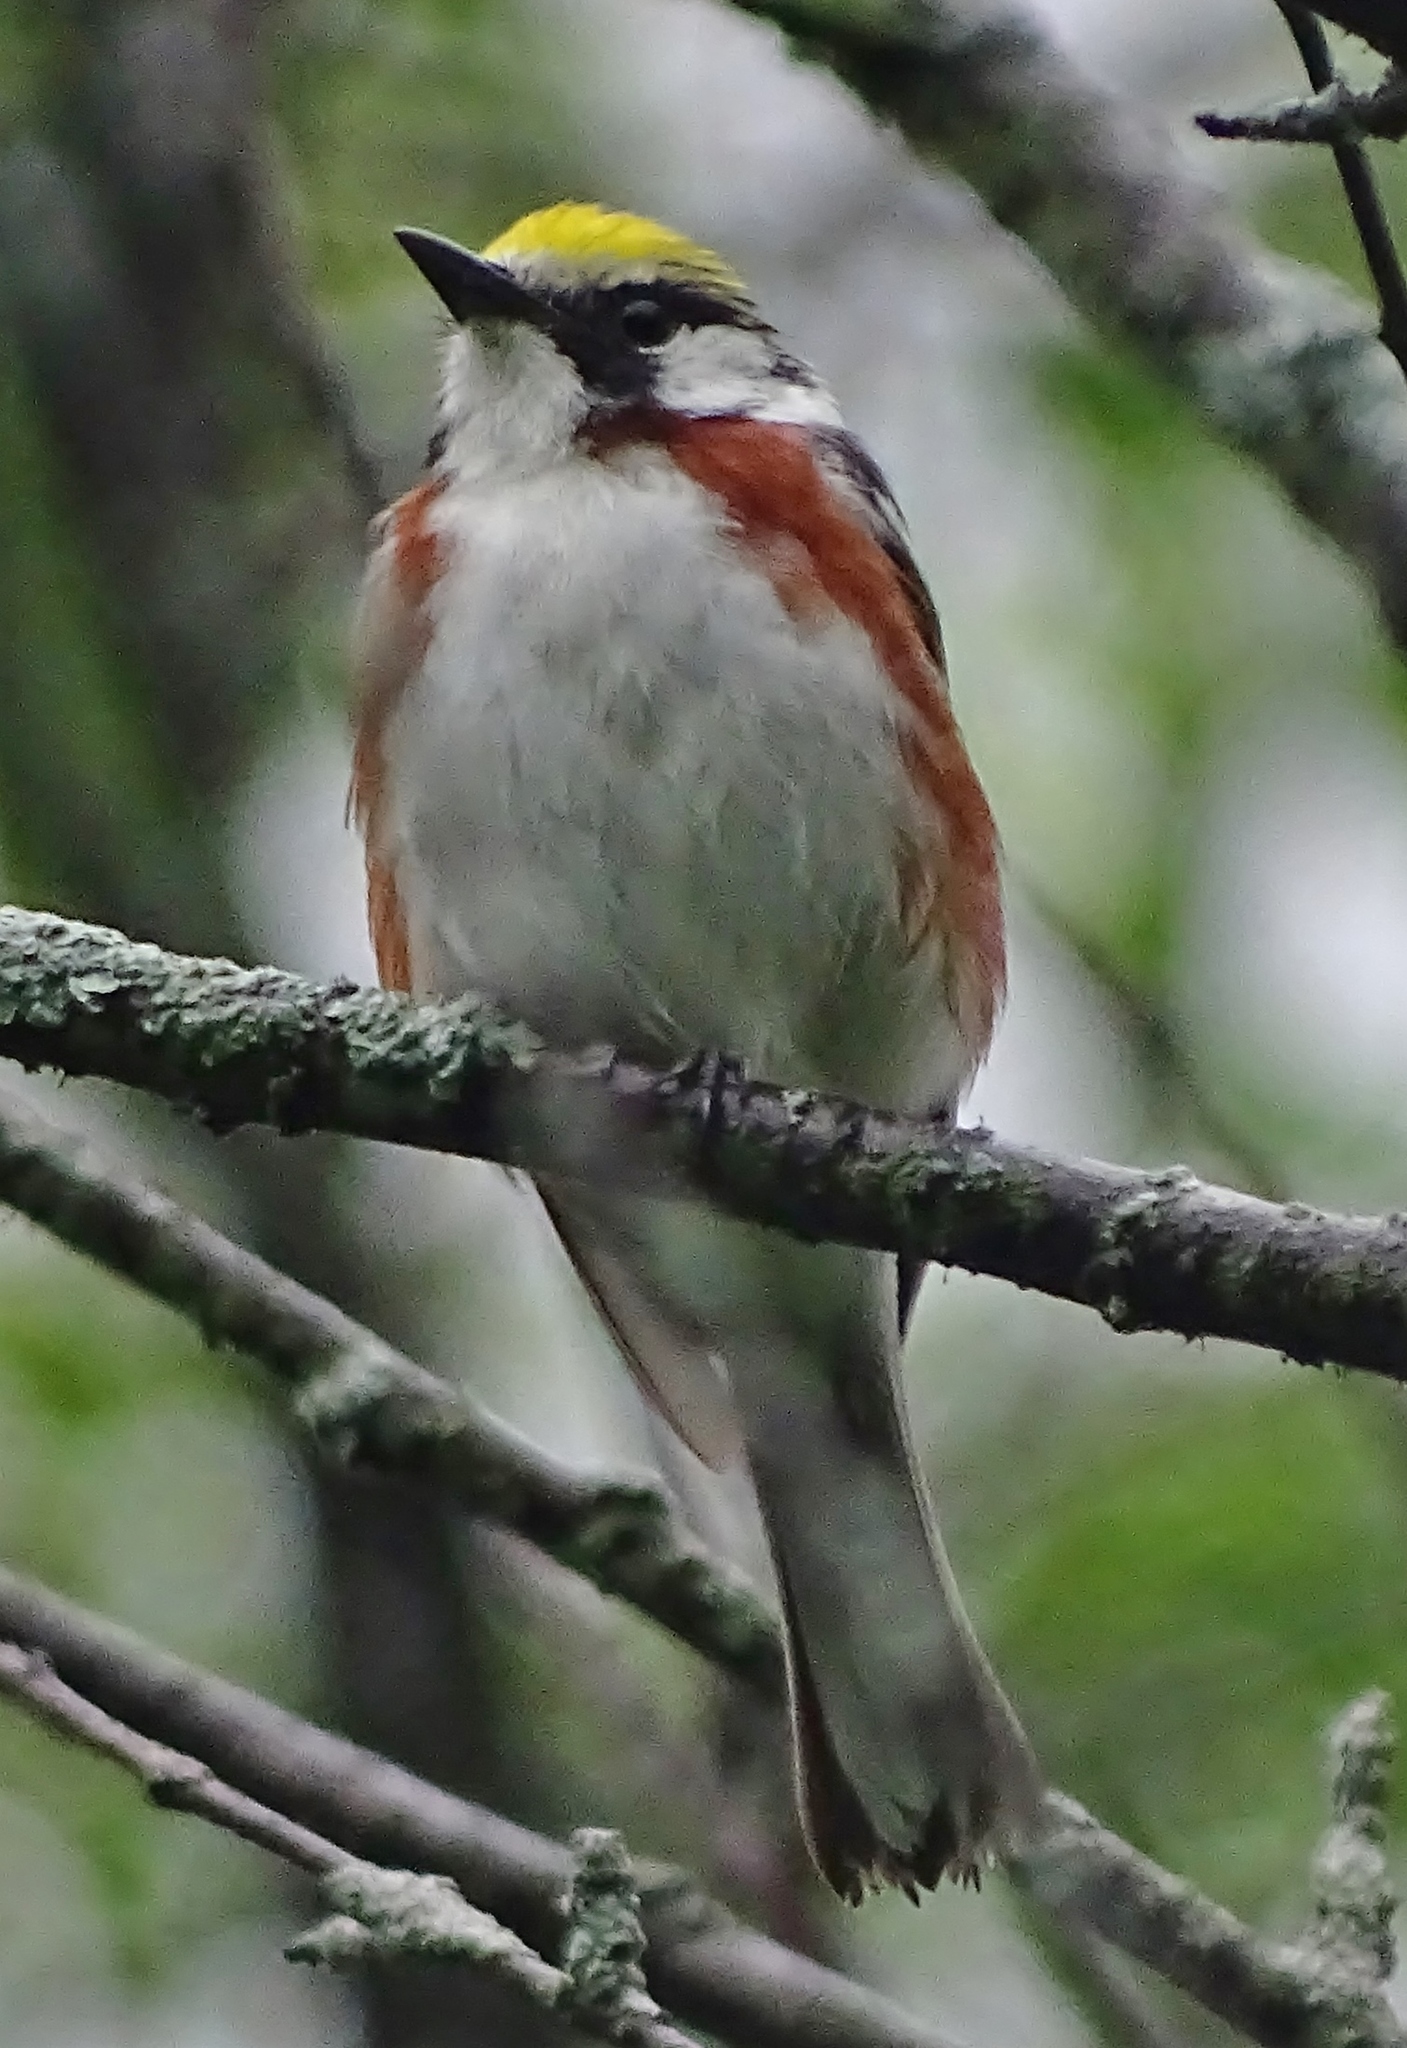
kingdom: Animalia
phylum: Chordata
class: Aves
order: Passeriformes
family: Parulidae
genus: Setophaga
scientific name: Setophaga pensylvanica
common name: Chestnut-sided warbler
